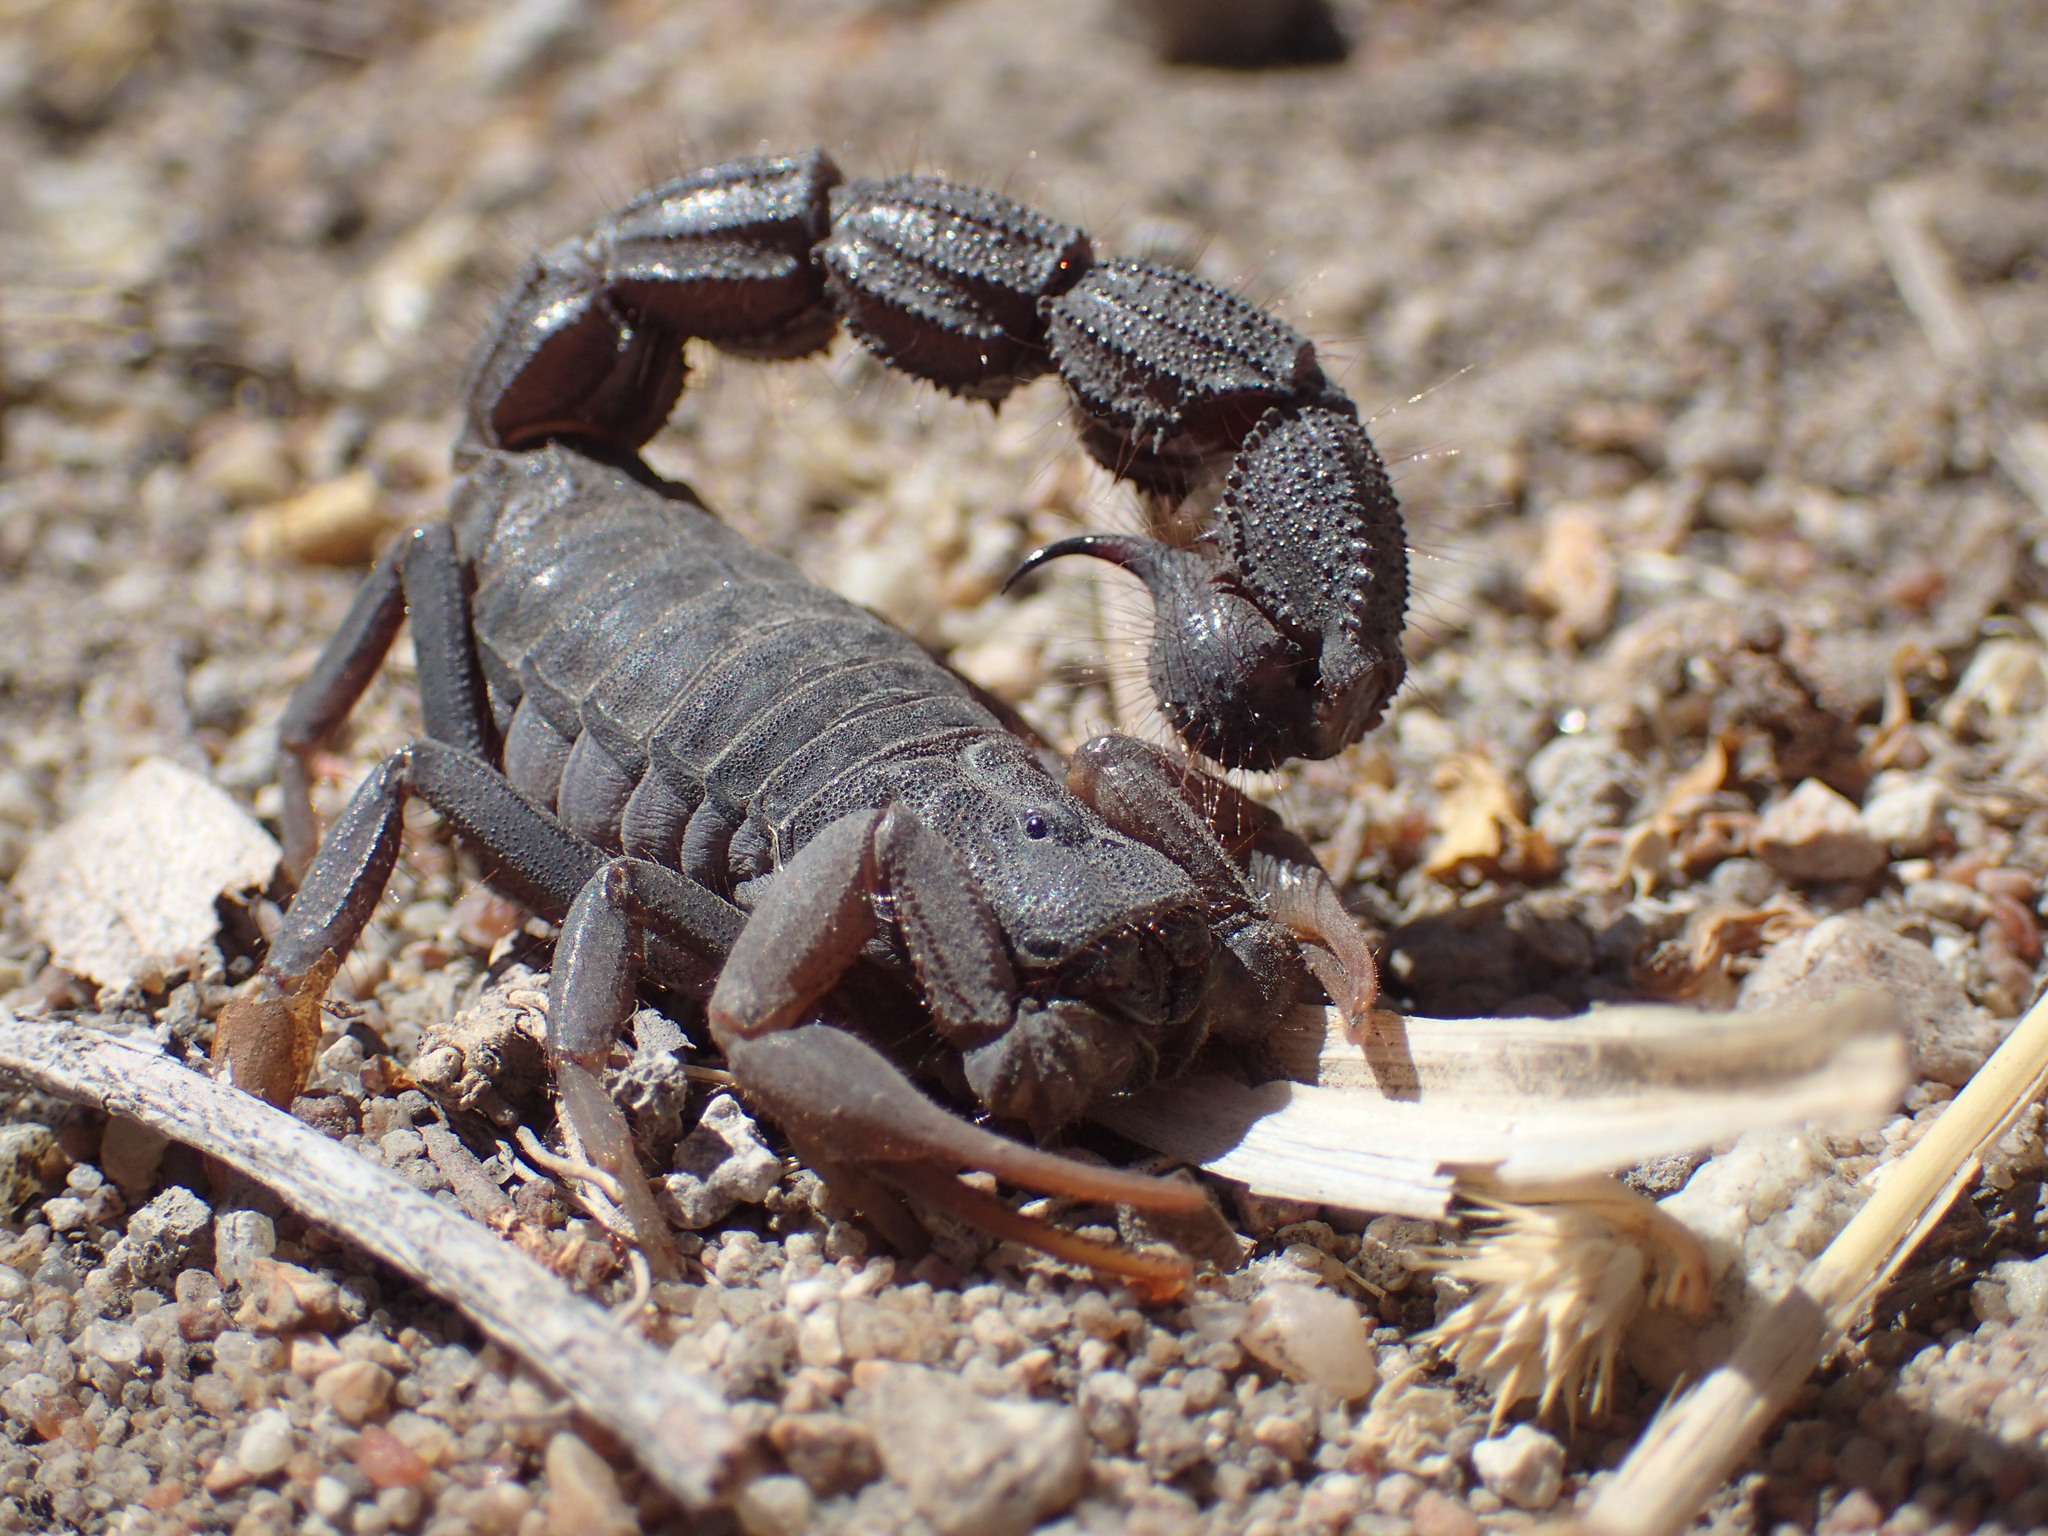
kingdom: Animalia
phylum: Arthropoda
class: Arachnida
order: Scorpiones
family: Buthidae
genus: Parabuthus
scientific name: Parabuthus transvaalicus
